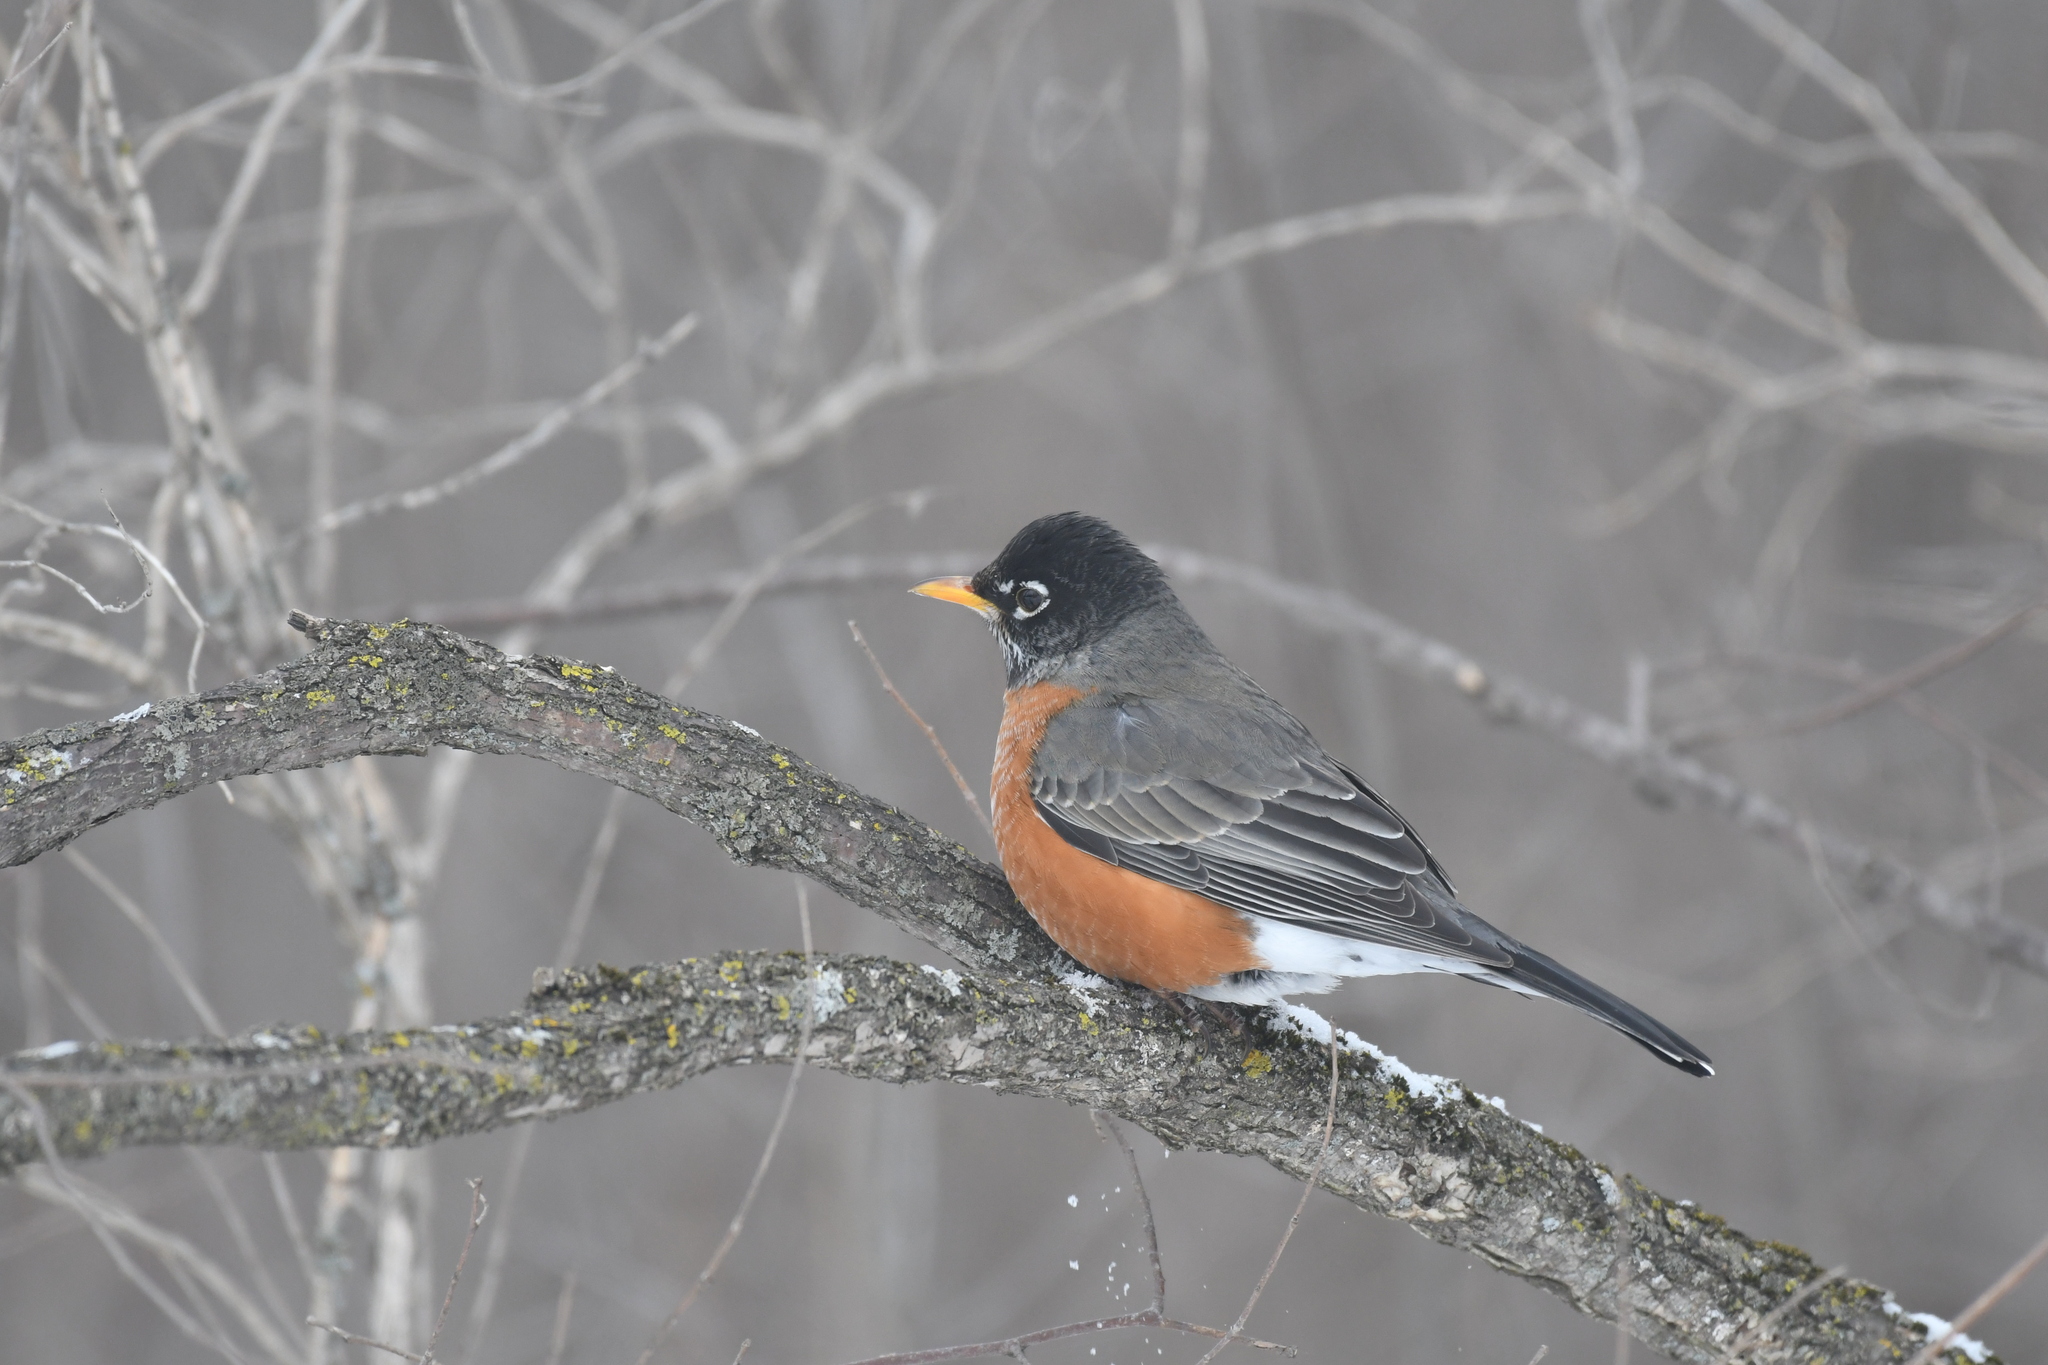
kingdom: Animalia
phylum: Chordata
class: Aves
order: Passeriformes
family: Turdidae
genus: Turdus
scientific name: Turdus migratorius
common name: American robin
